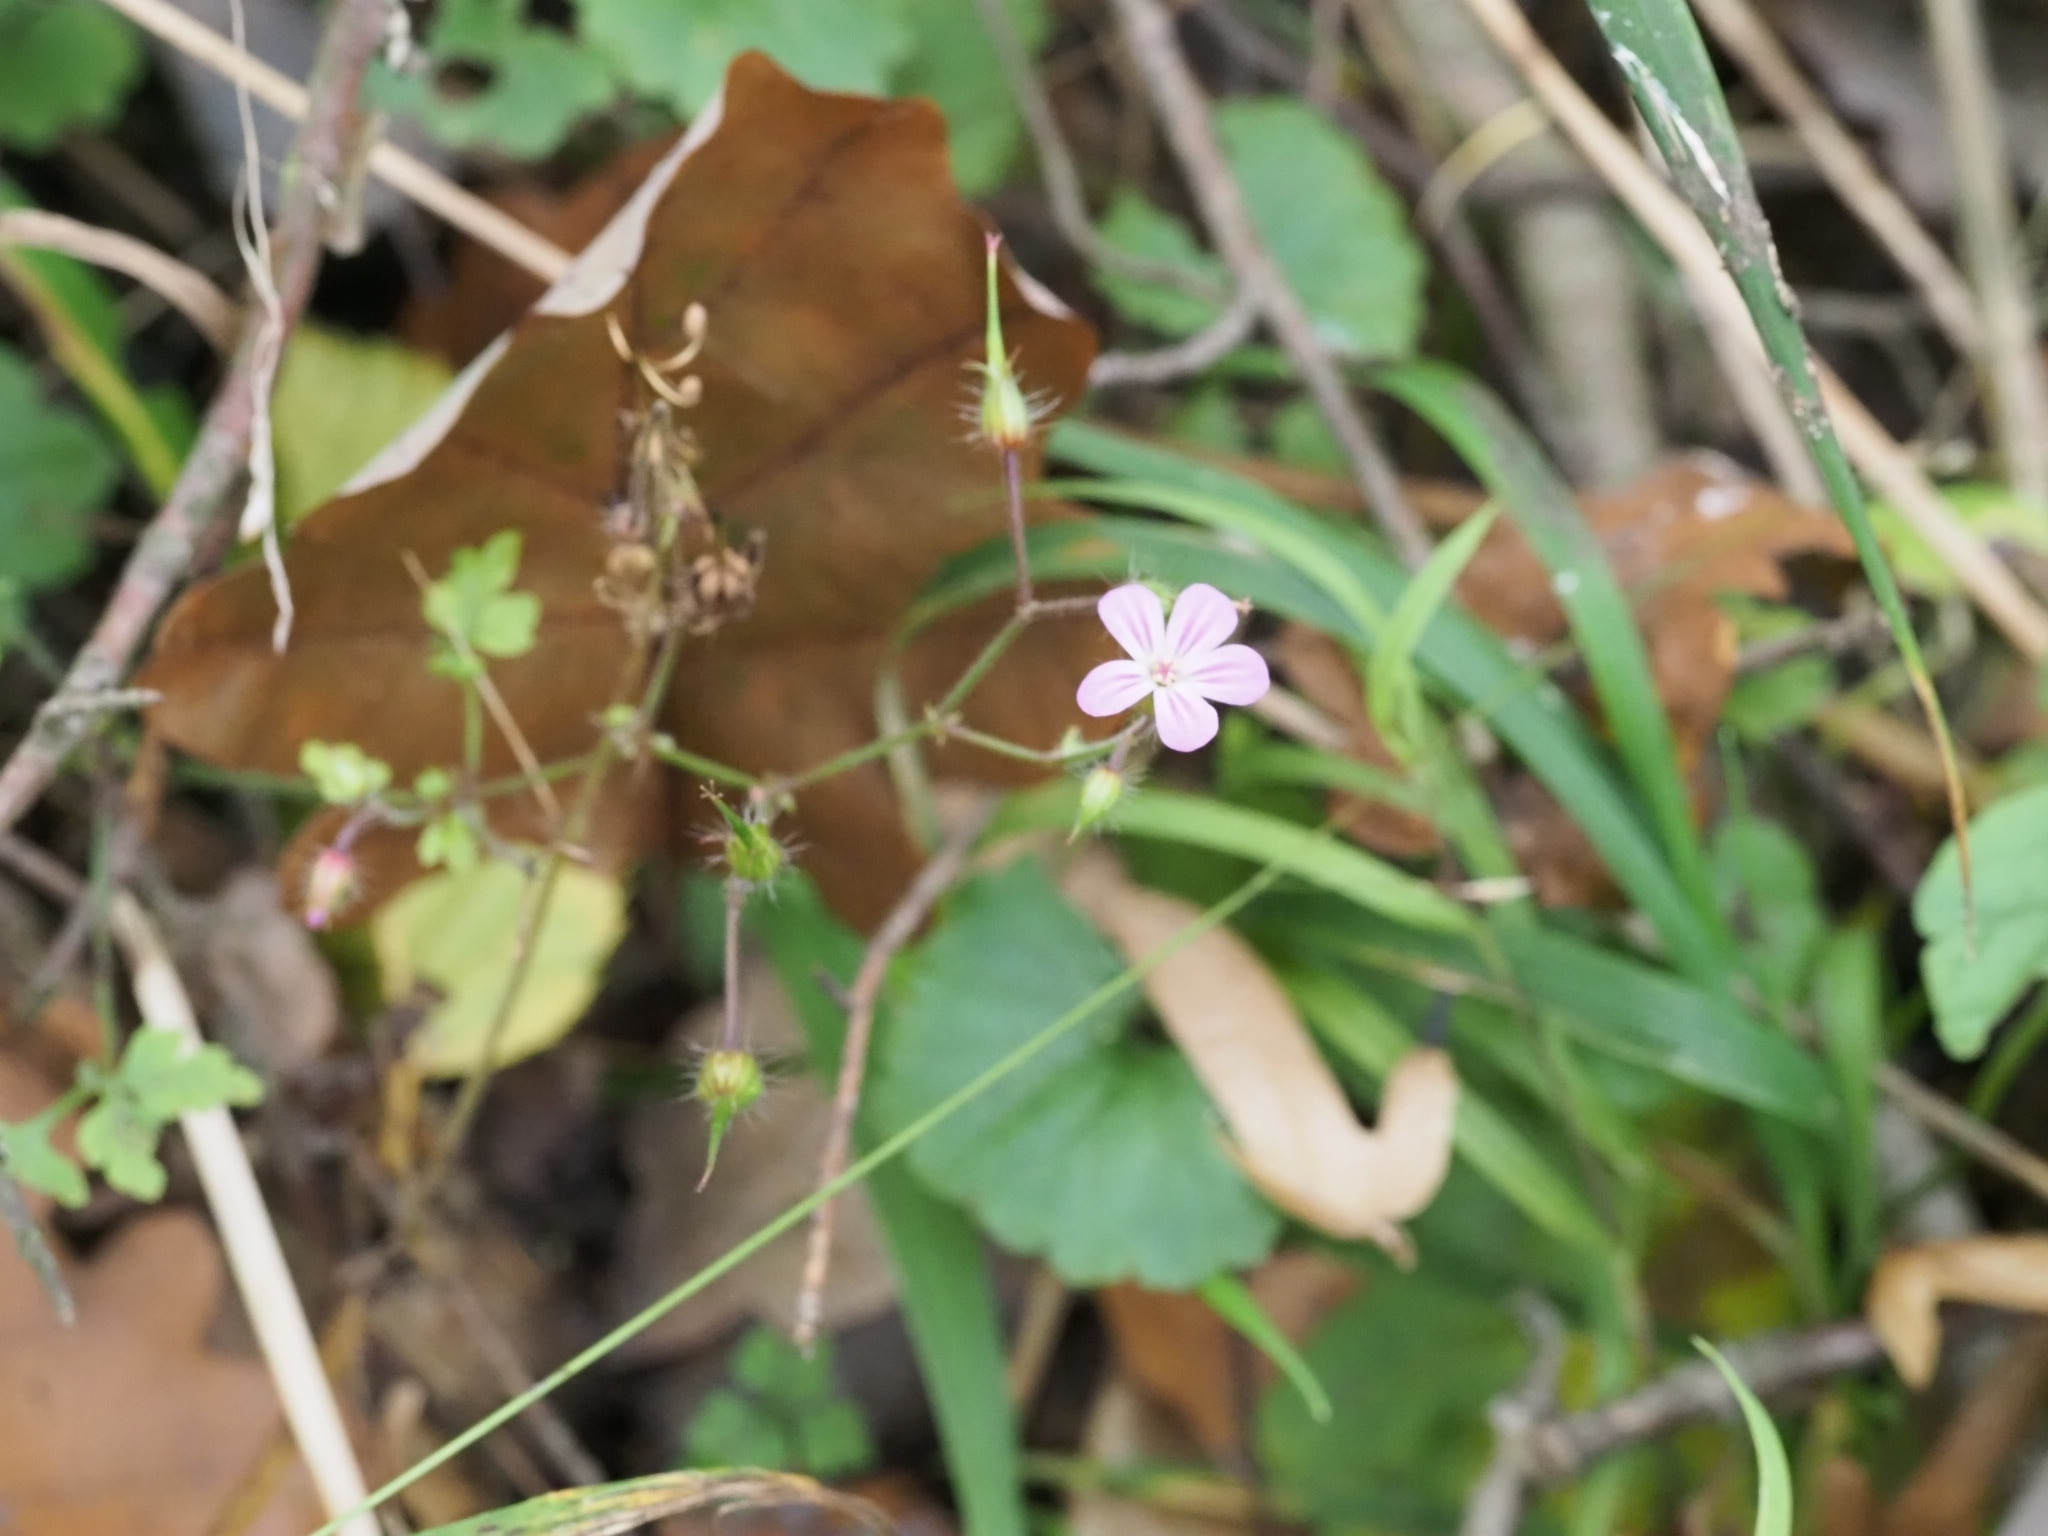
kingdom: Plantae
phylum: Tracheophyta
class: Magnoliopsida
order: Geraniales
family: Geraniaceae
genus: Geranium
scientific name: Geranium robertianum
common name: Herb-robert
